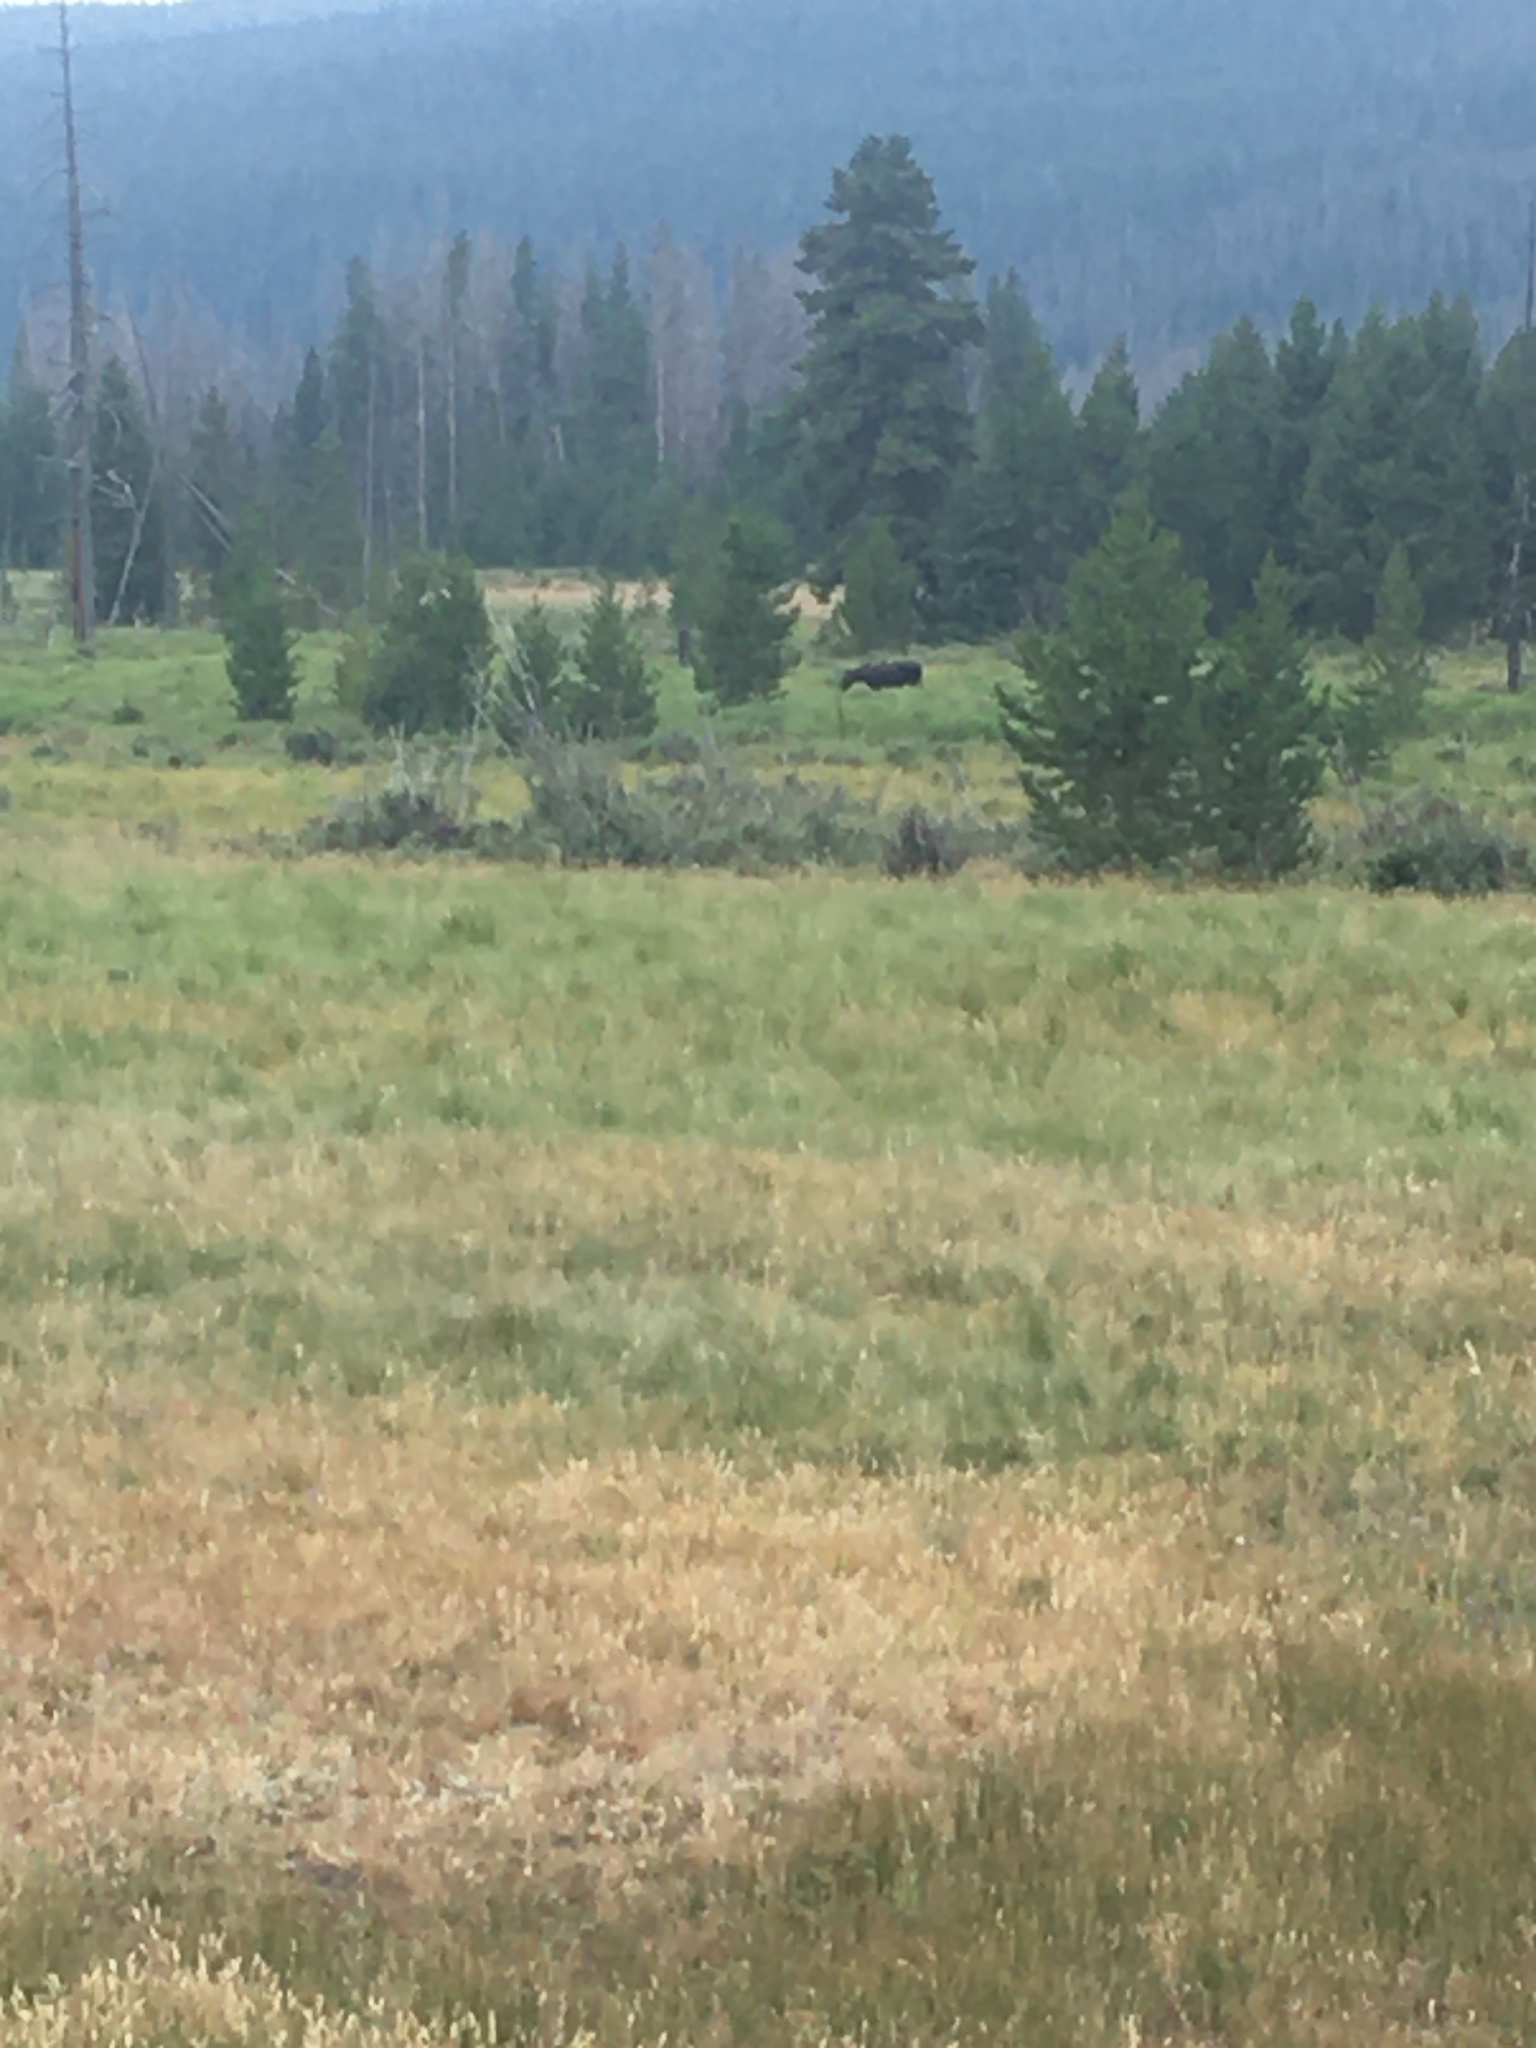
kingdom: Animalia
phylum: Chordata
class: Mammalia
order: Artiodactyla
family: Cervidae
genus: Alces
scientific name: Alces americanus
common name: Moose
